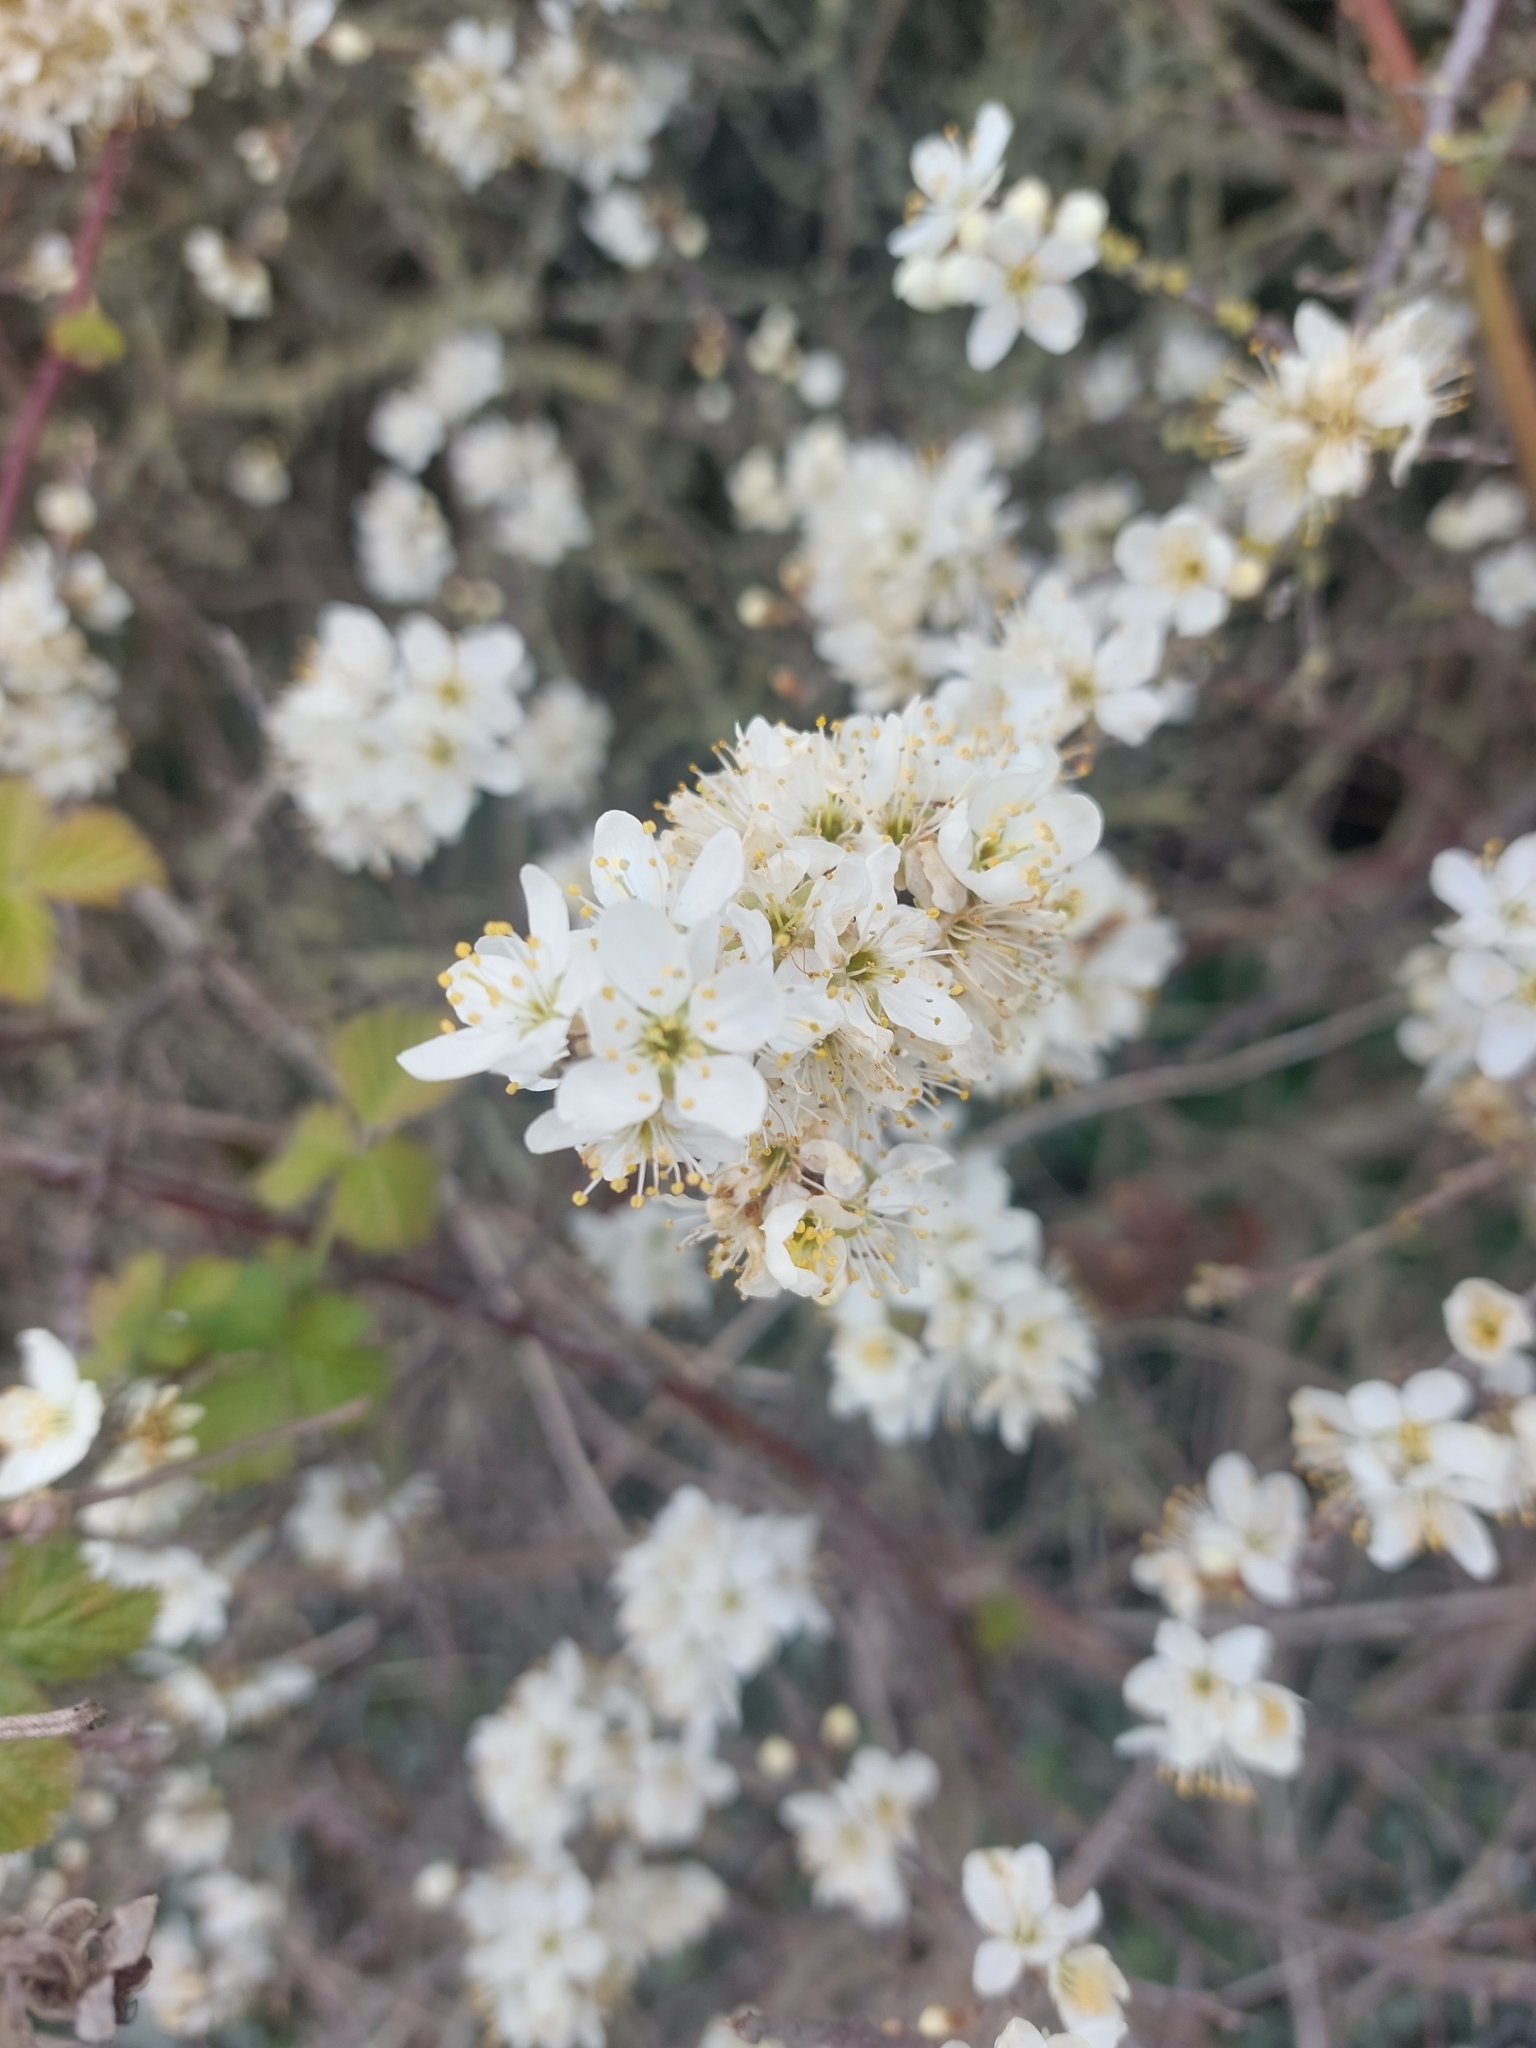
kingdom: Plantae
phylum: Tracheophyta
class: Magnoliopsida
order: Rosales
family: Rosaceae
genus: Prunus
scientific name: Prunus spinosa
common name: Blackthorn
